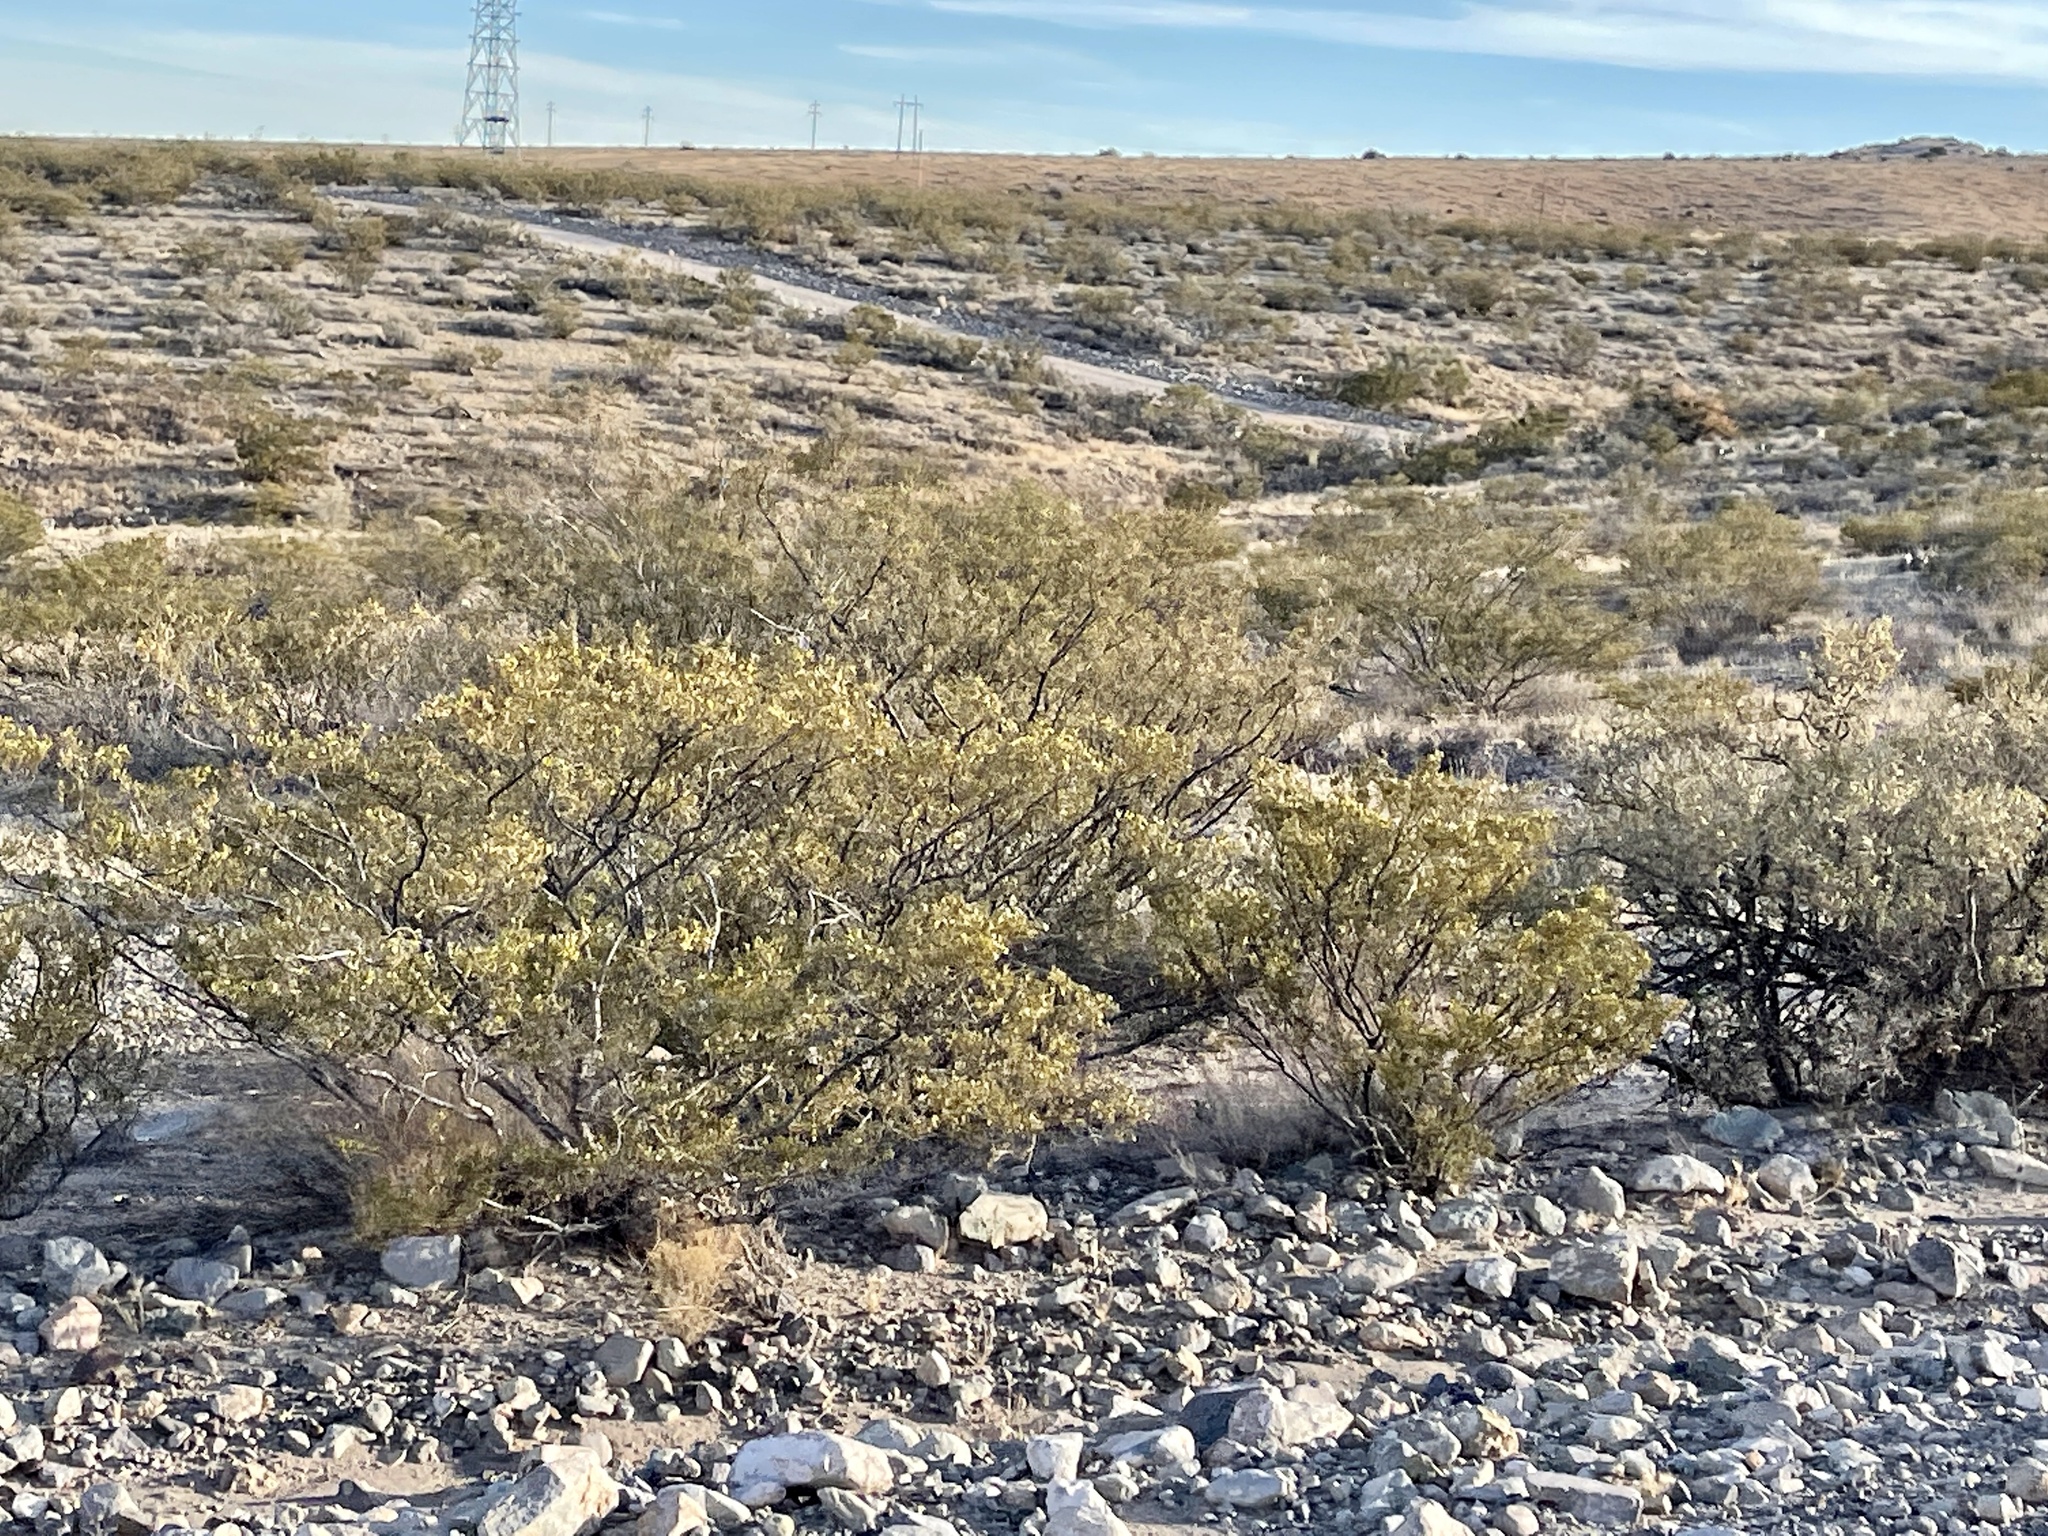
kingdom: Plantae
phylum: Tracheophyta
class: Magnoliopsida
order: Zygophyllales
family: Zygophyllaceae
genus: Larrea
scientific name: Larrea tridentata
